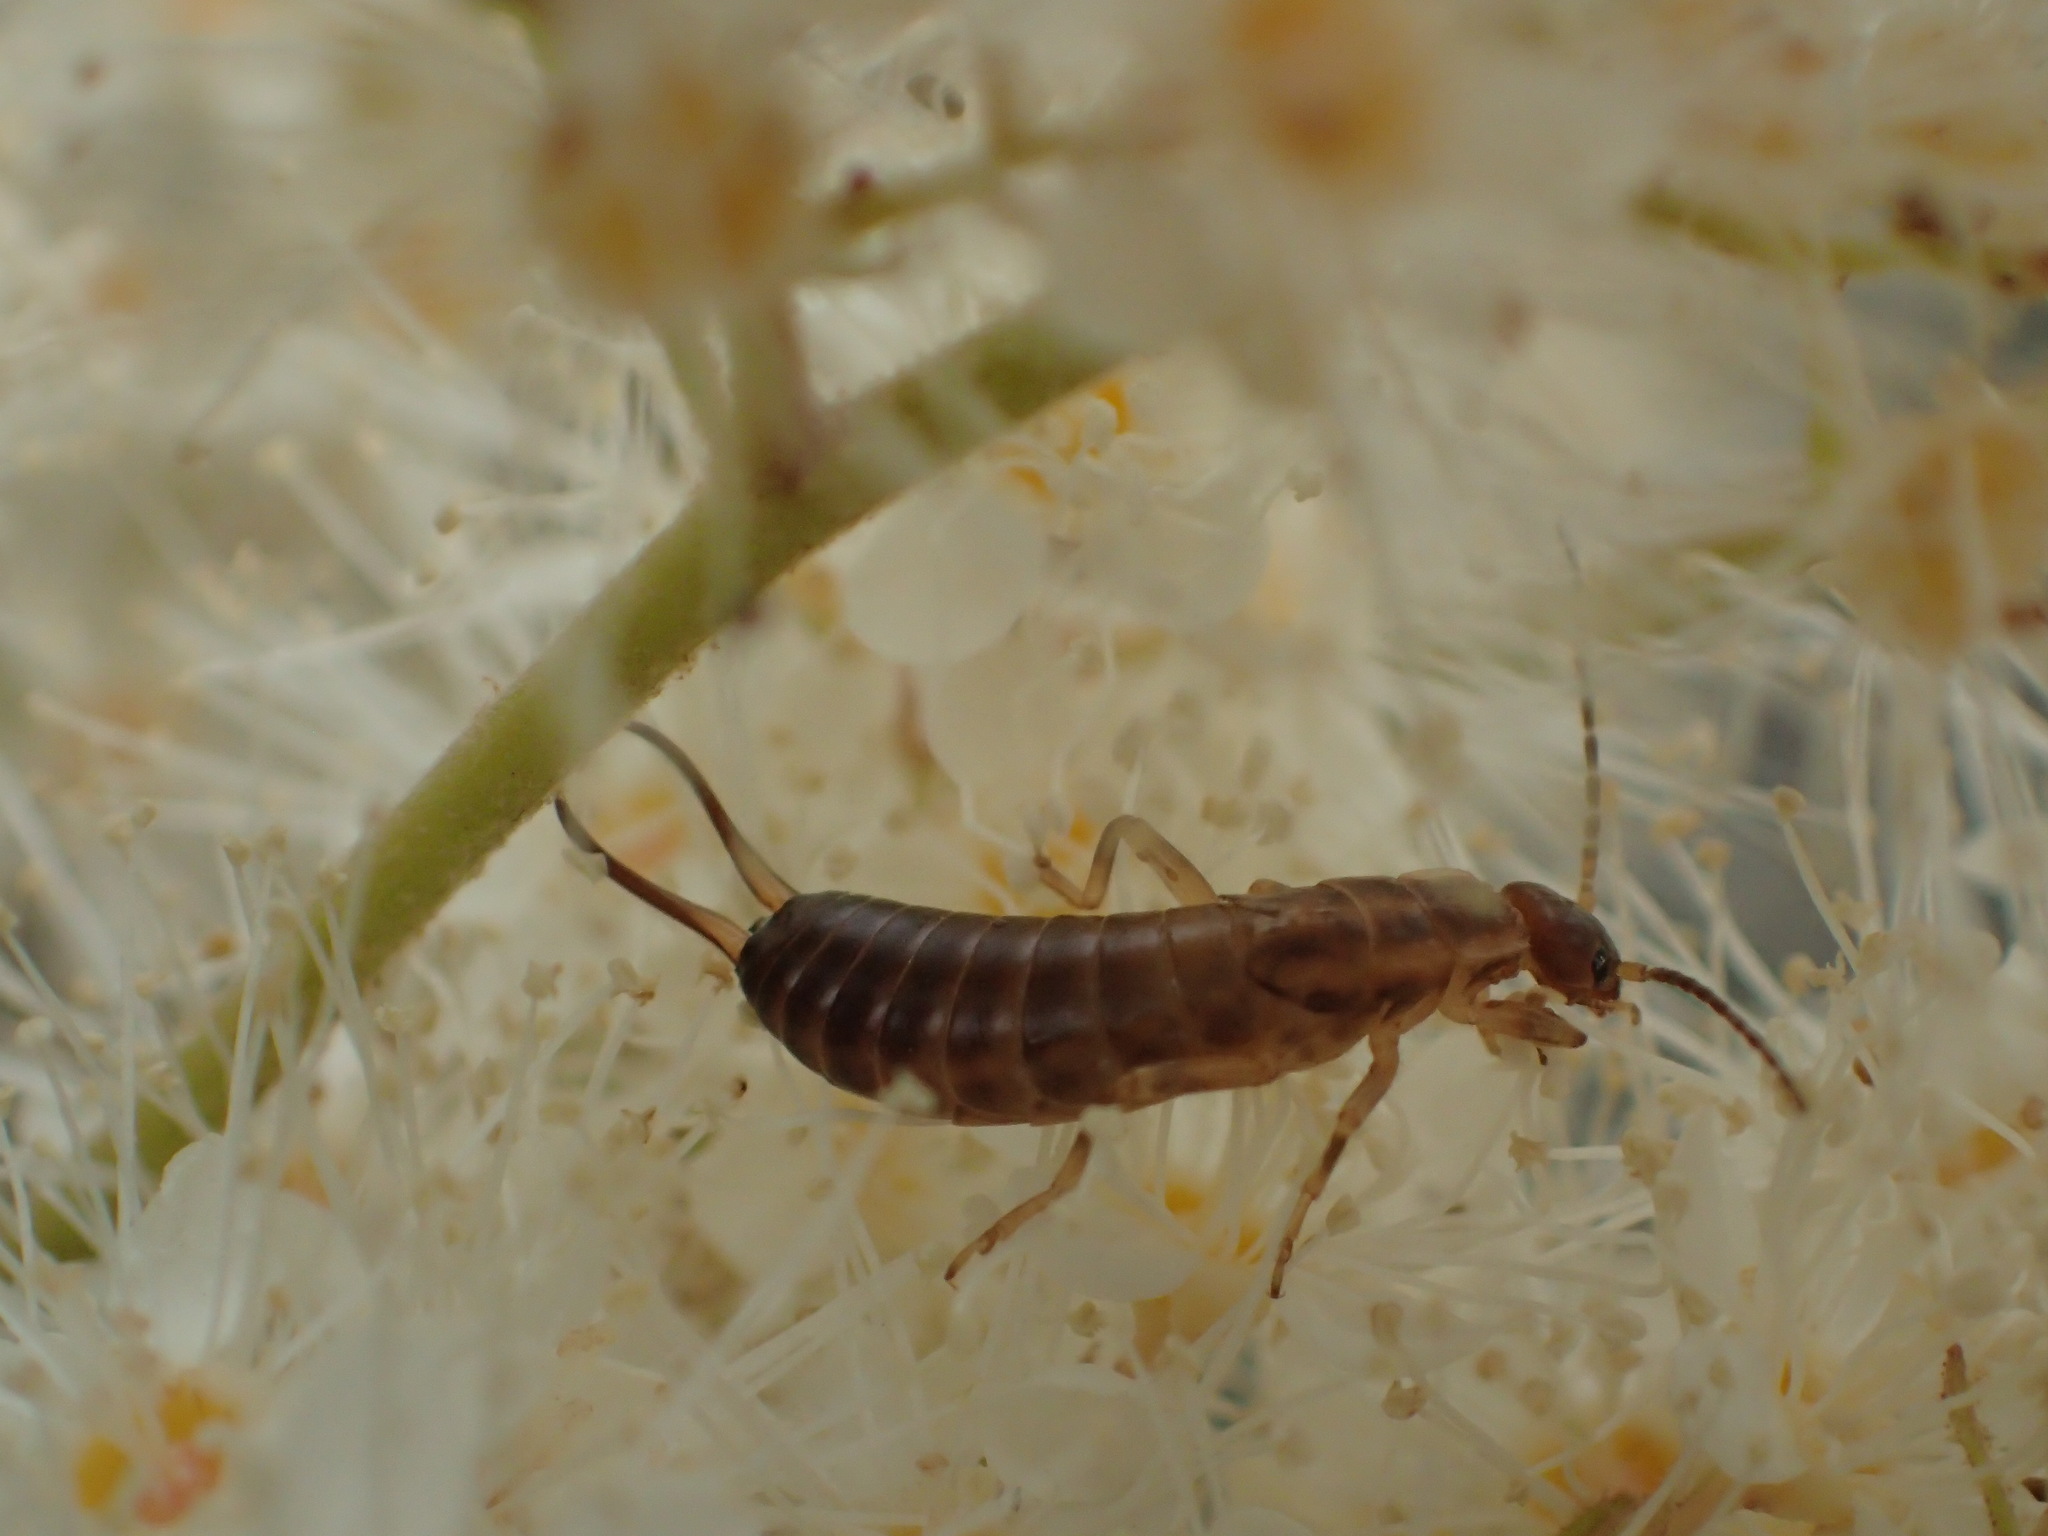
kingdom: Animalia
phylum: Arthropoda
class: Insecta
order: Dermaptera
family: Forficulidae
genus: Forficula
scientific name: Forficula
